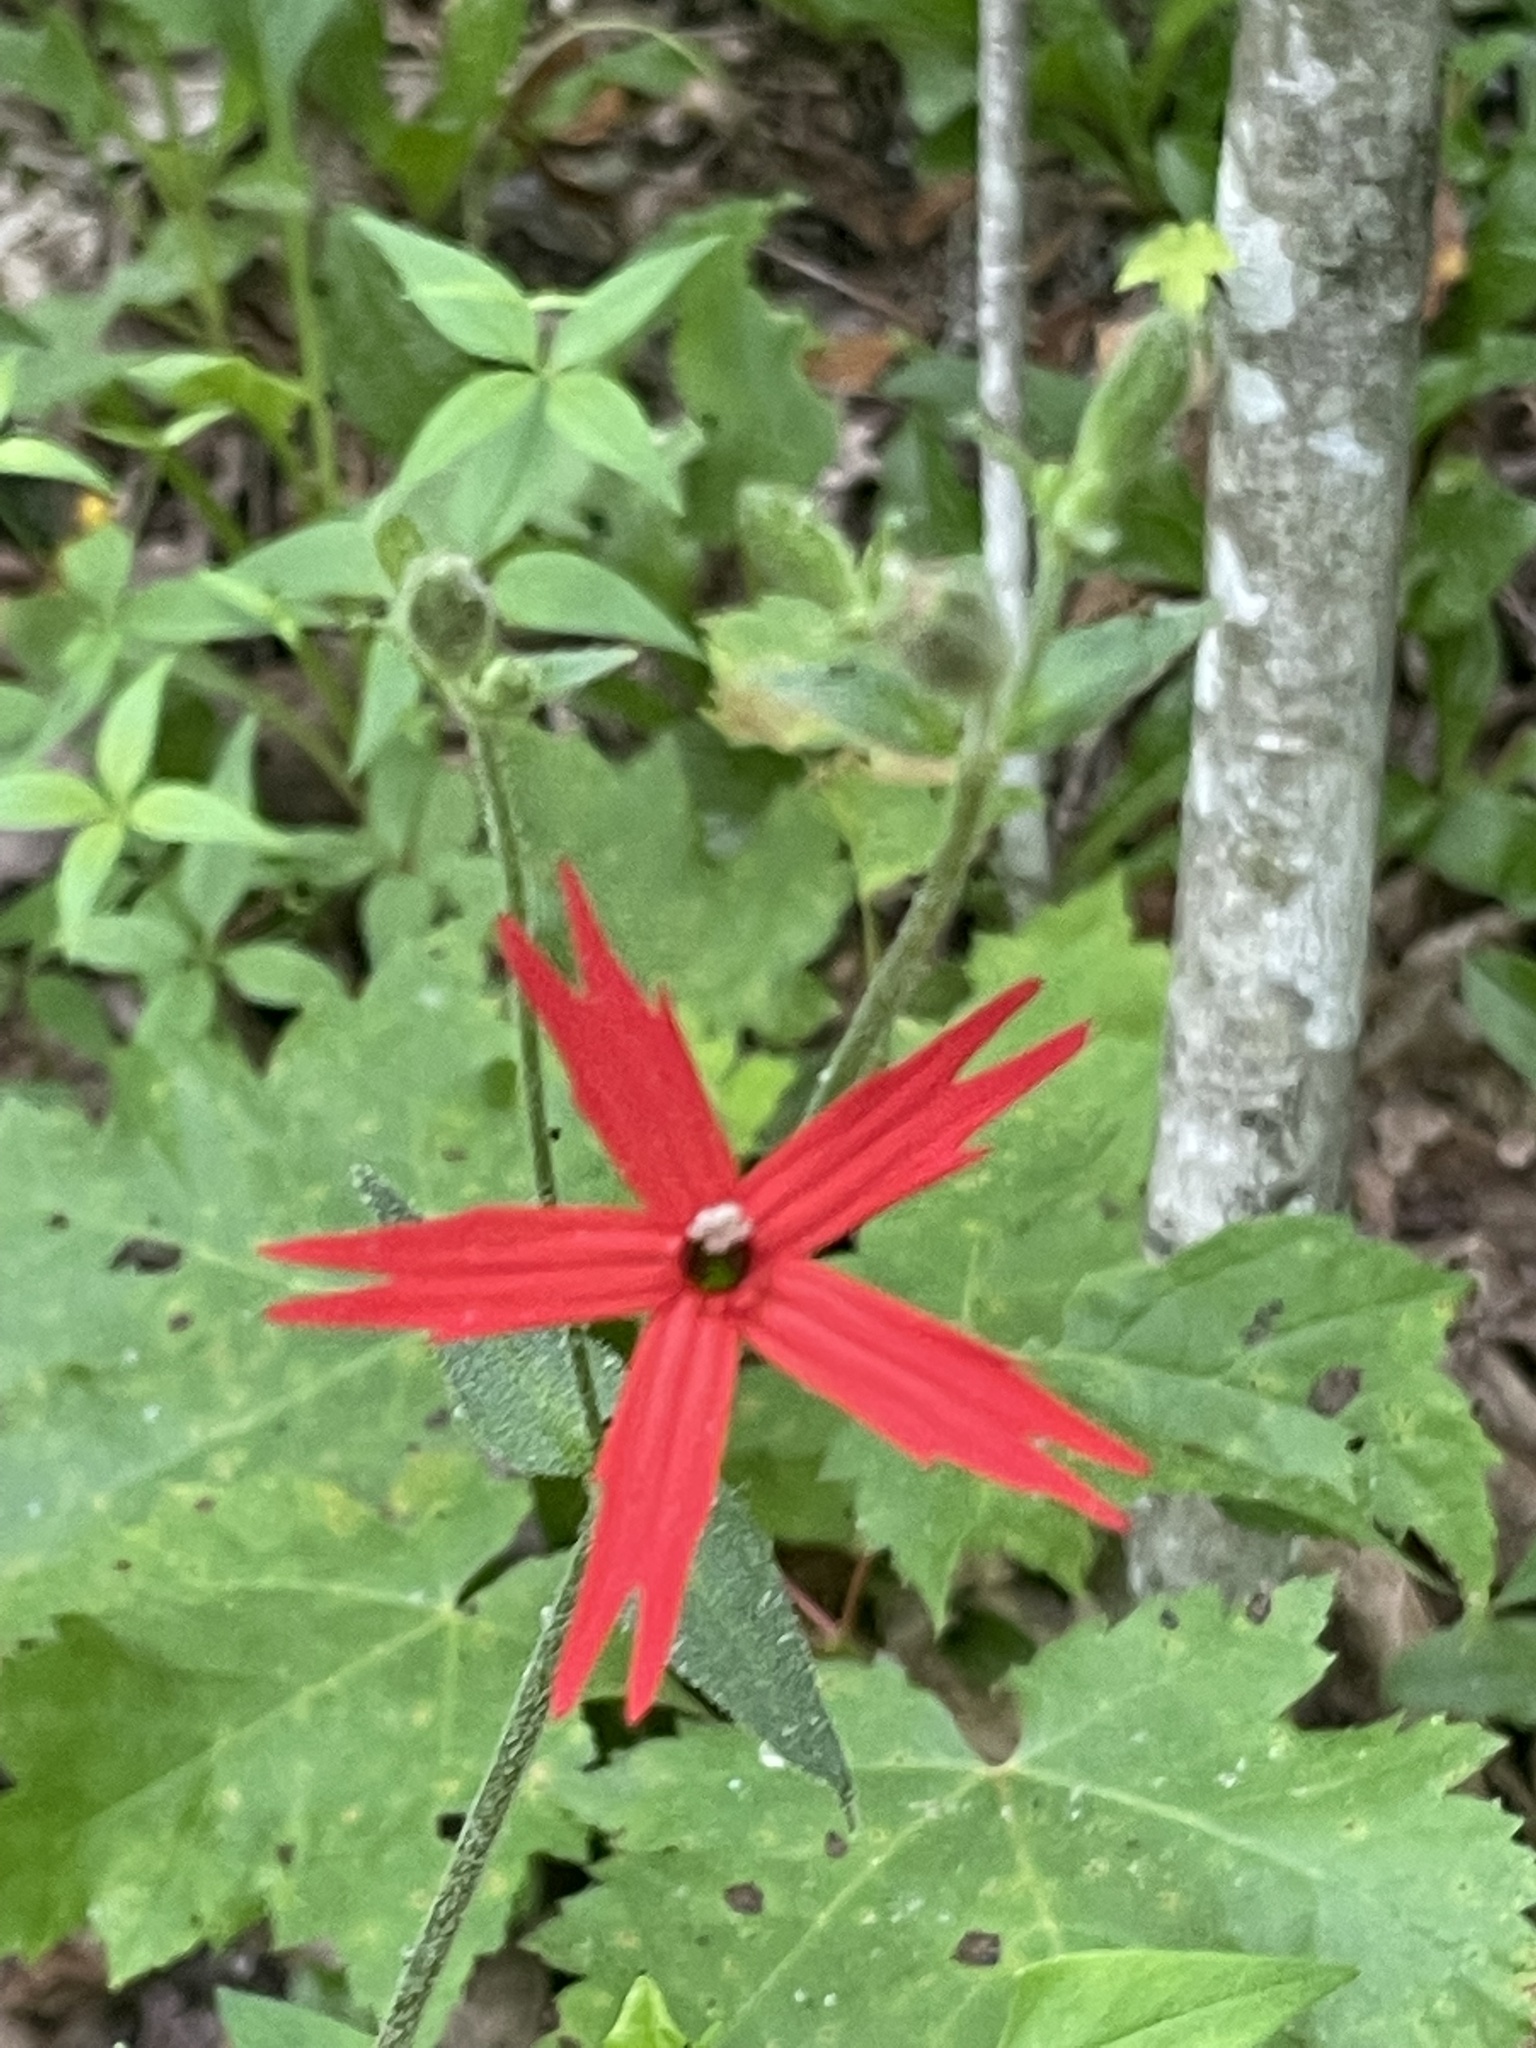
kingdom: Plantae
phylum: Tracheophyta
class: Magnoliopsida
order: Caryophyllales
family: Caryophyllaceae
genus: Silene
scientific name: Silene virginica
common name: Fire-pink
